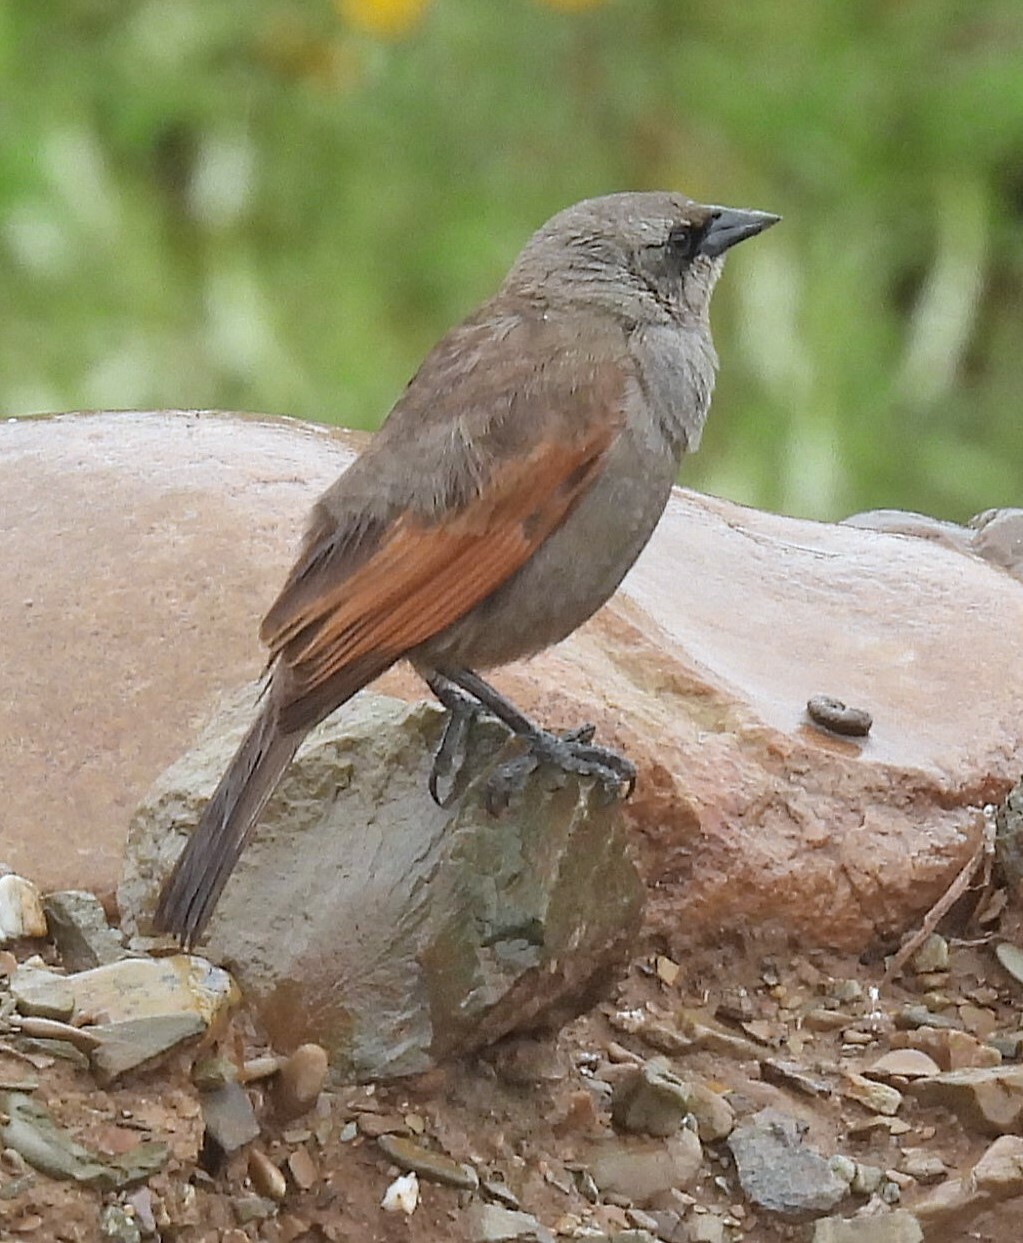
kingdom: Animalia
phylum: Chordata
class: Aves
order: Passeriformes
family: Icteridae
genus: Agelaioides
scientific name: Agelaioides badius
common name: Baywing
